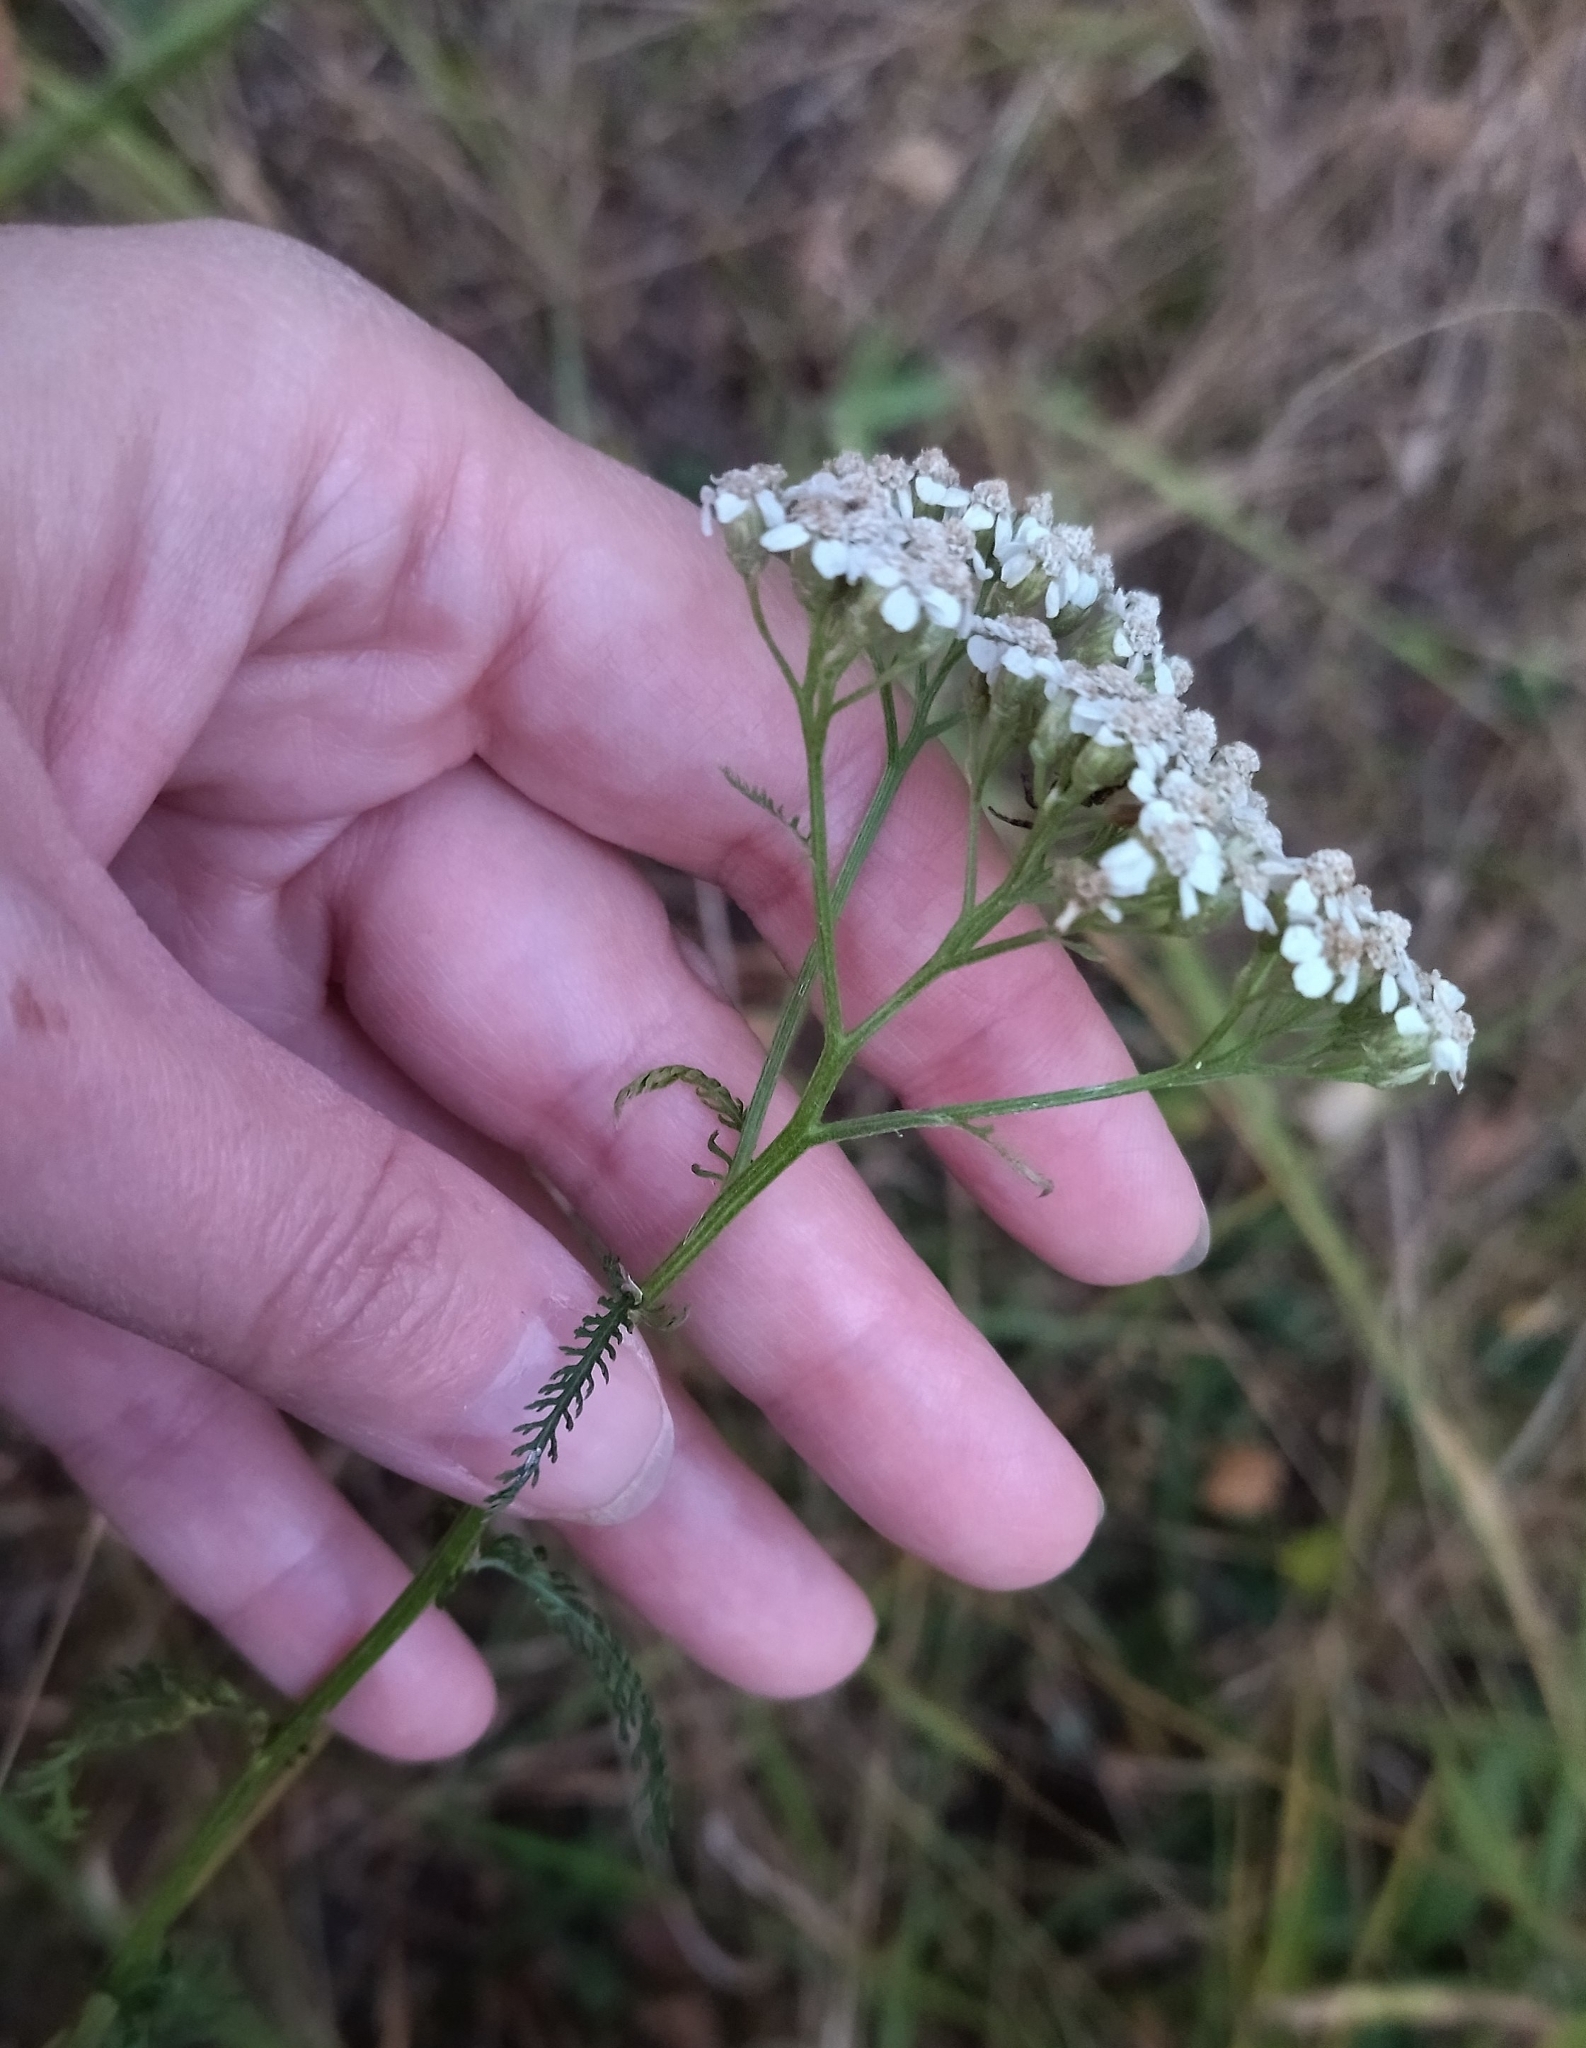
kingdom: Plantae
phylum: Tracheophyta
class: Magnoliopsida
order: Asterales
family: Asteraceae
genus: Achillea
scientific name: Achillea millefolium
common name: Yarrow
